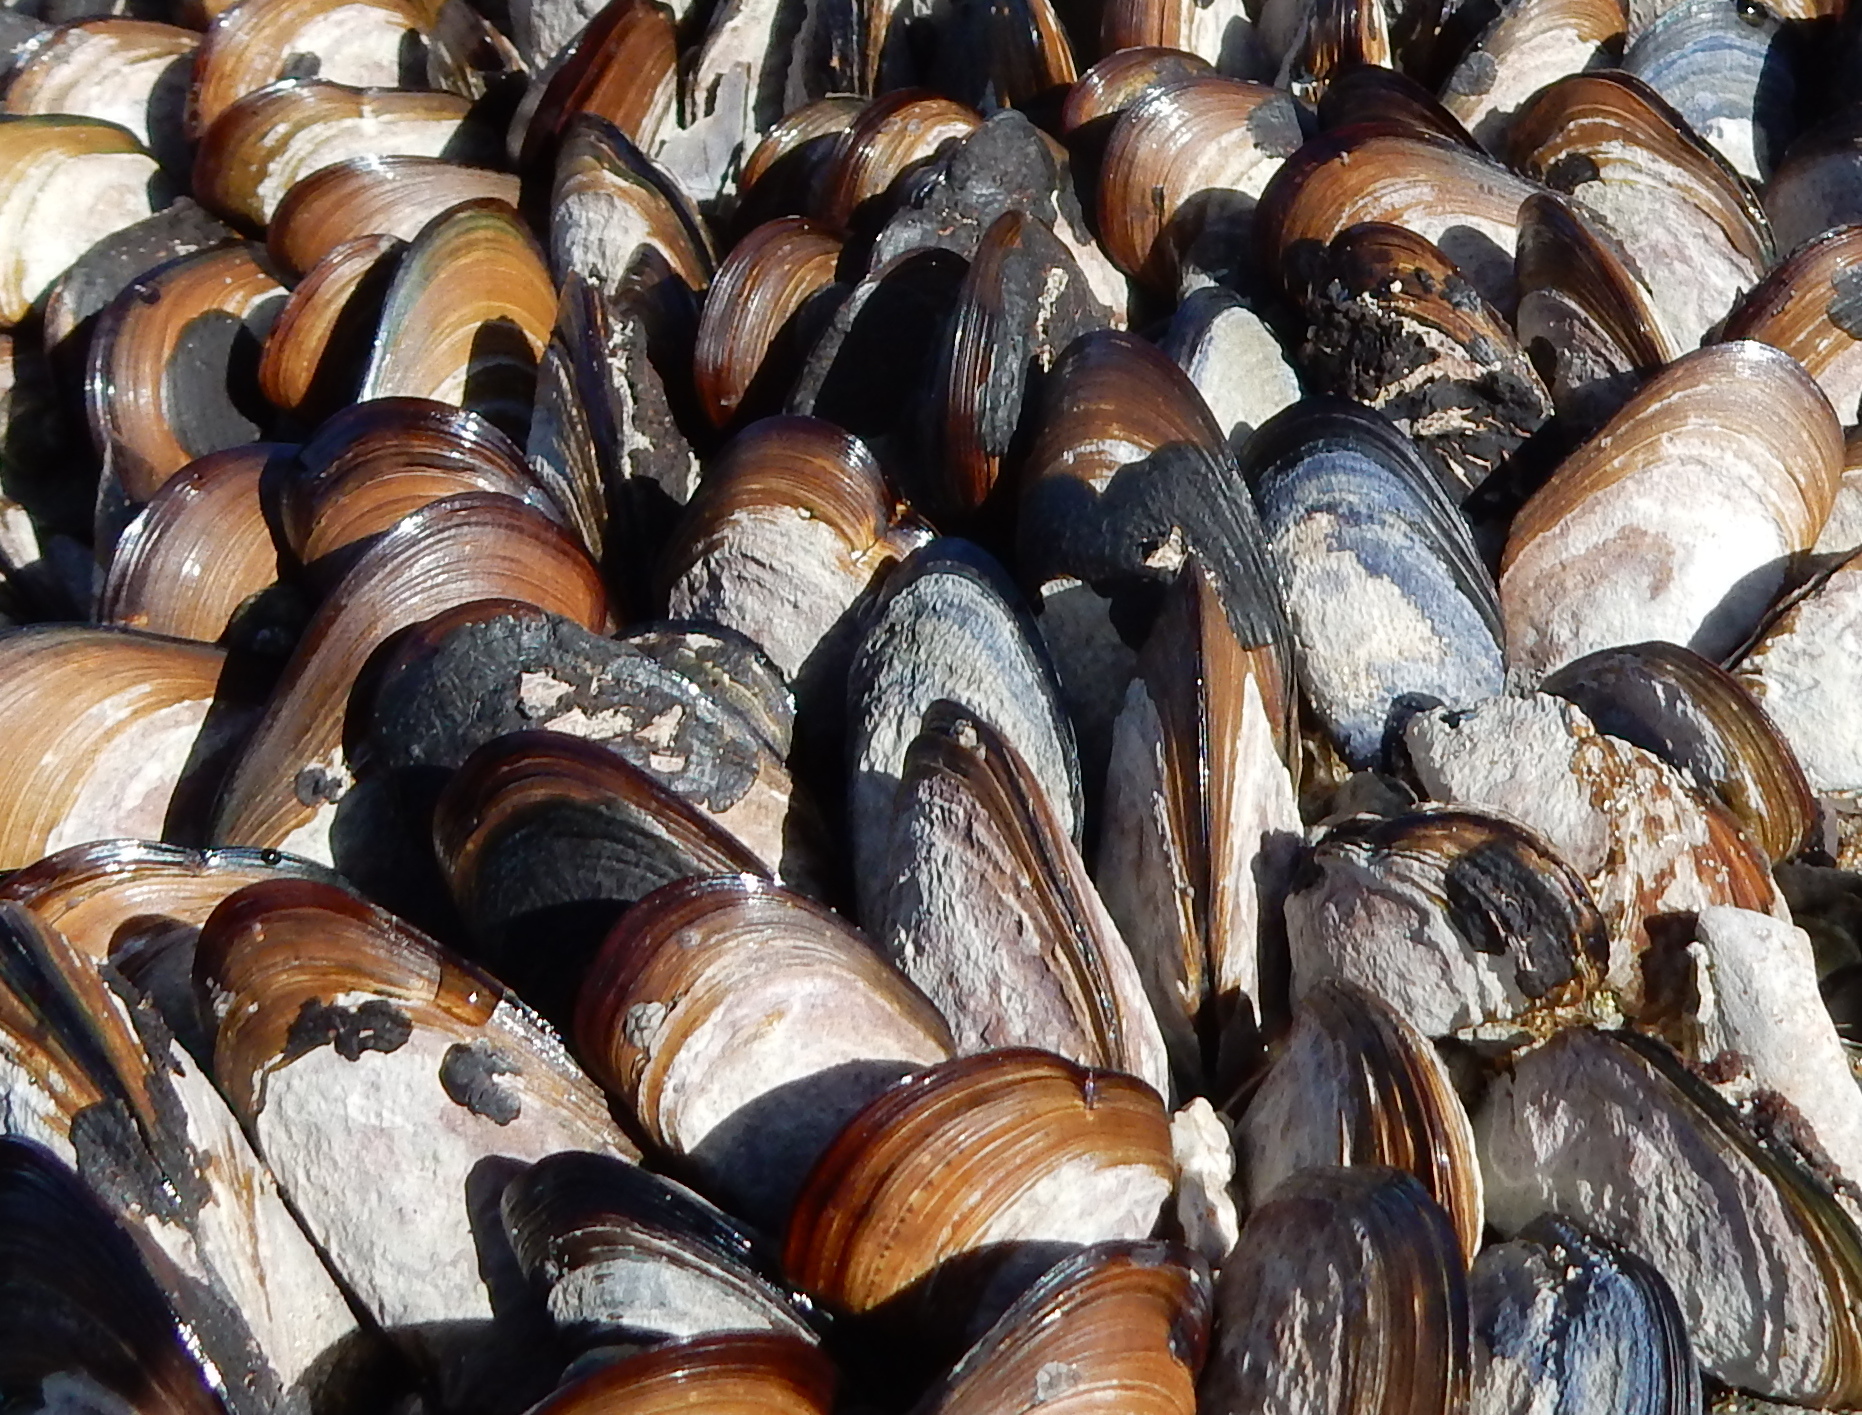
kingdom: Animalia
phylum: Mollusca
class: Bivalvia
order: Mytilida
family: Mytilidae
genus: Perna
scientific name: Perna perna
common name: Mexilhao mussel
